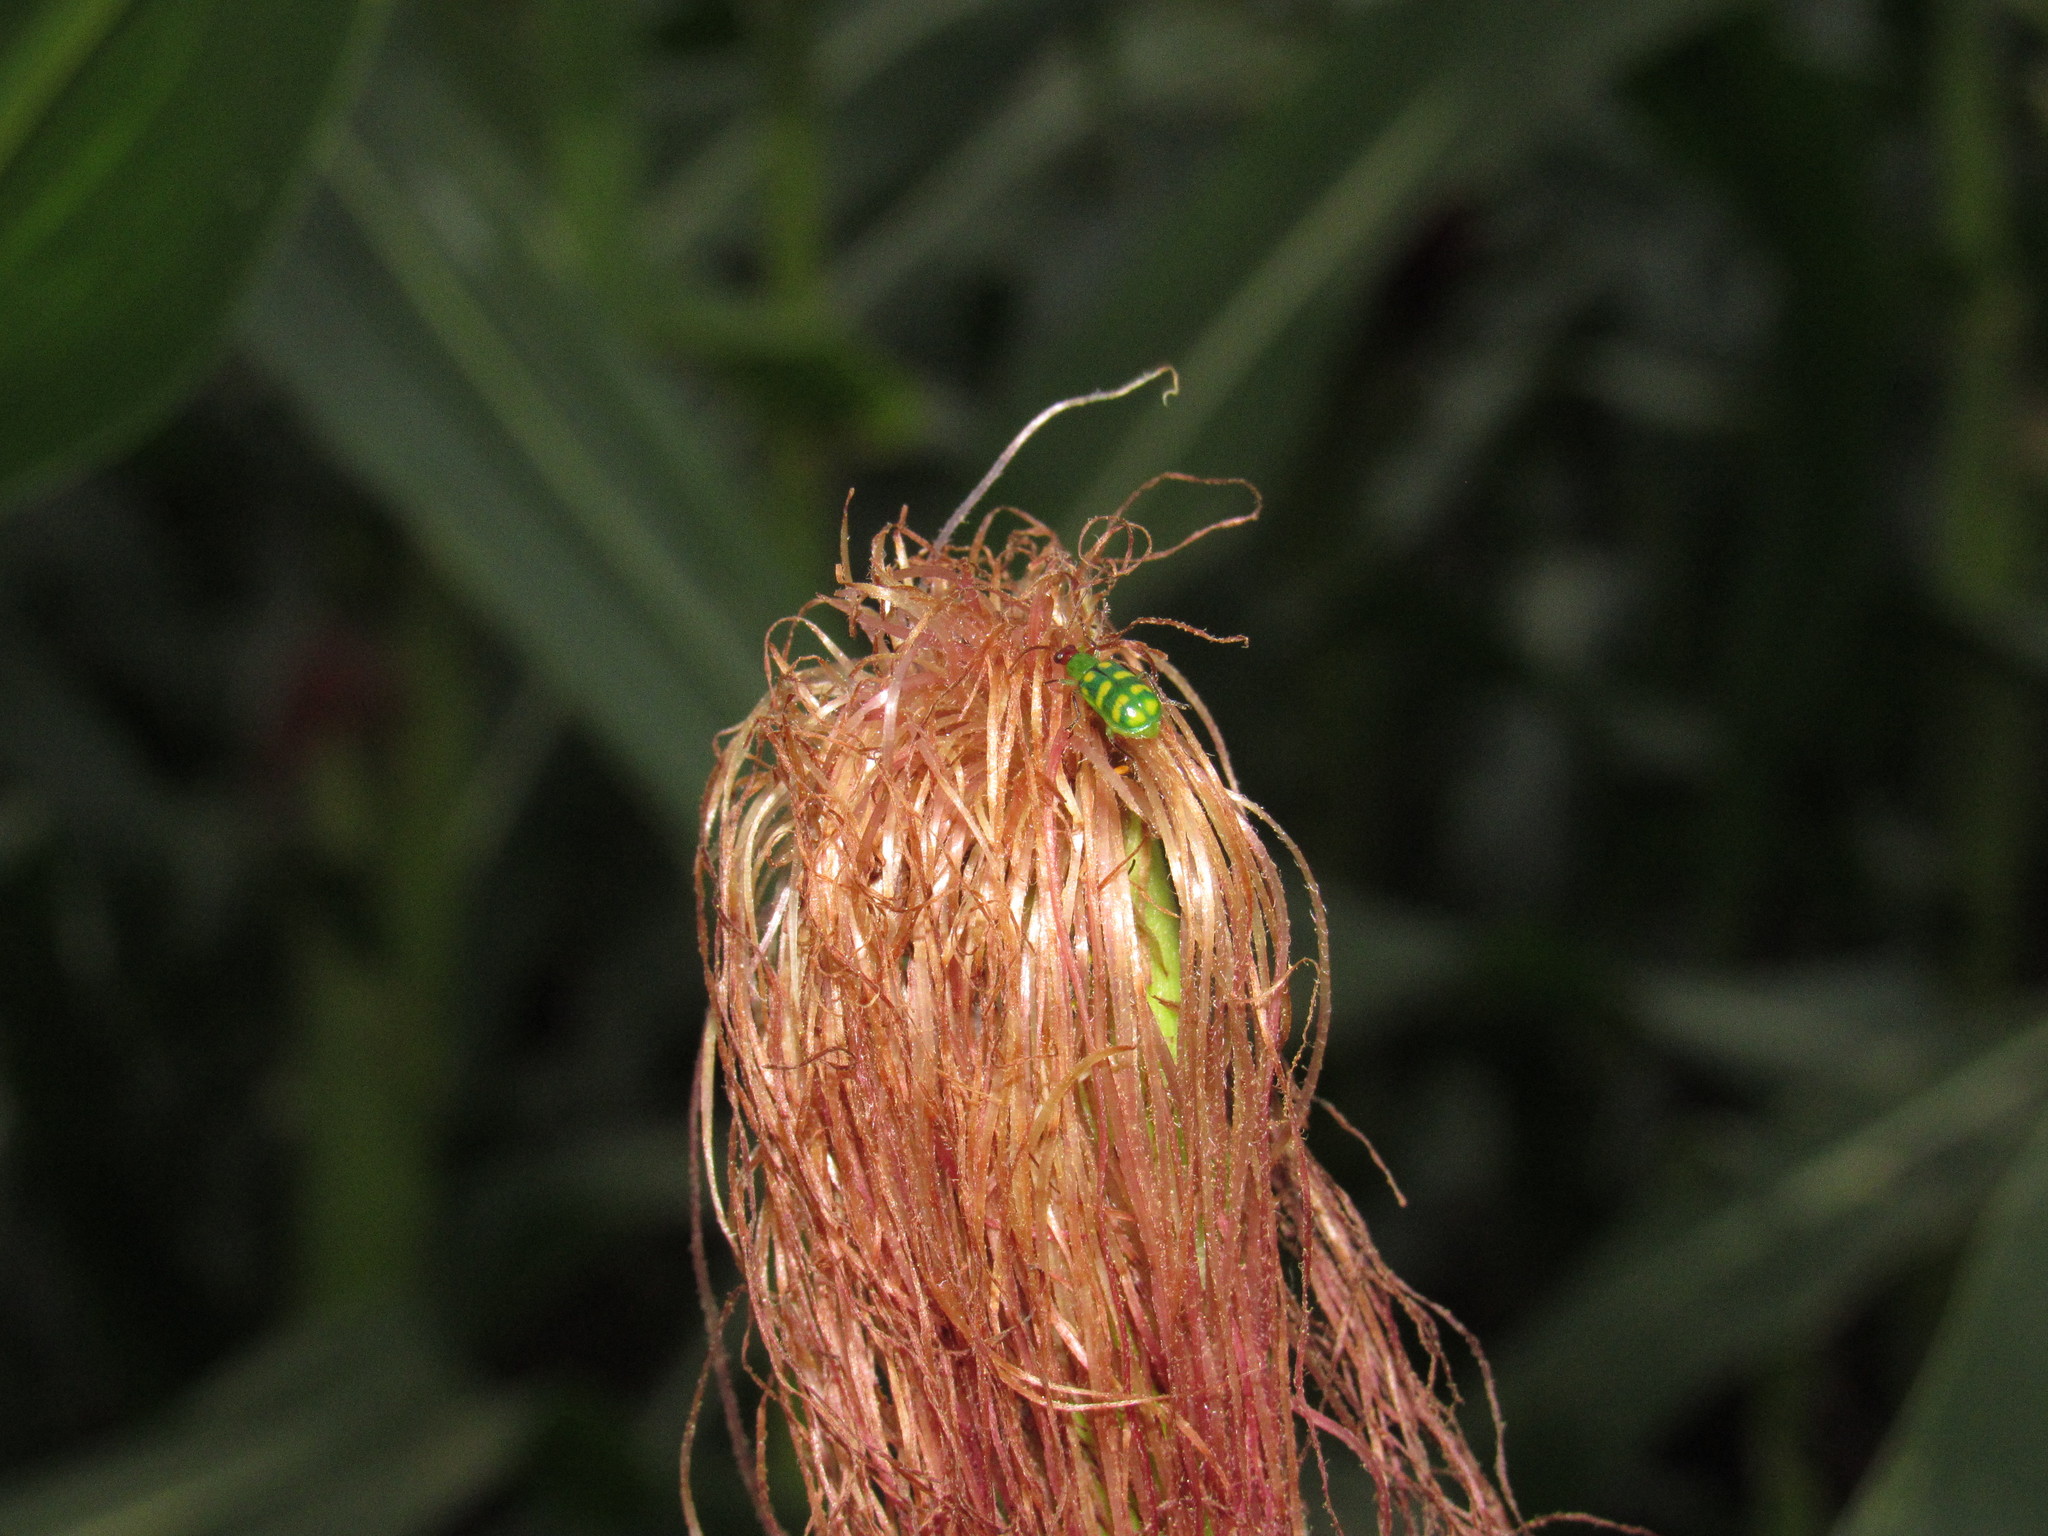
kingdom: Animalia
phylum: Arthropoda
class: Insecta
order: Coleoptera
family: Chrysomelidae
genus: Diabrotica
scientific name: Diabrotica balteata
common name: Leaf beetle
